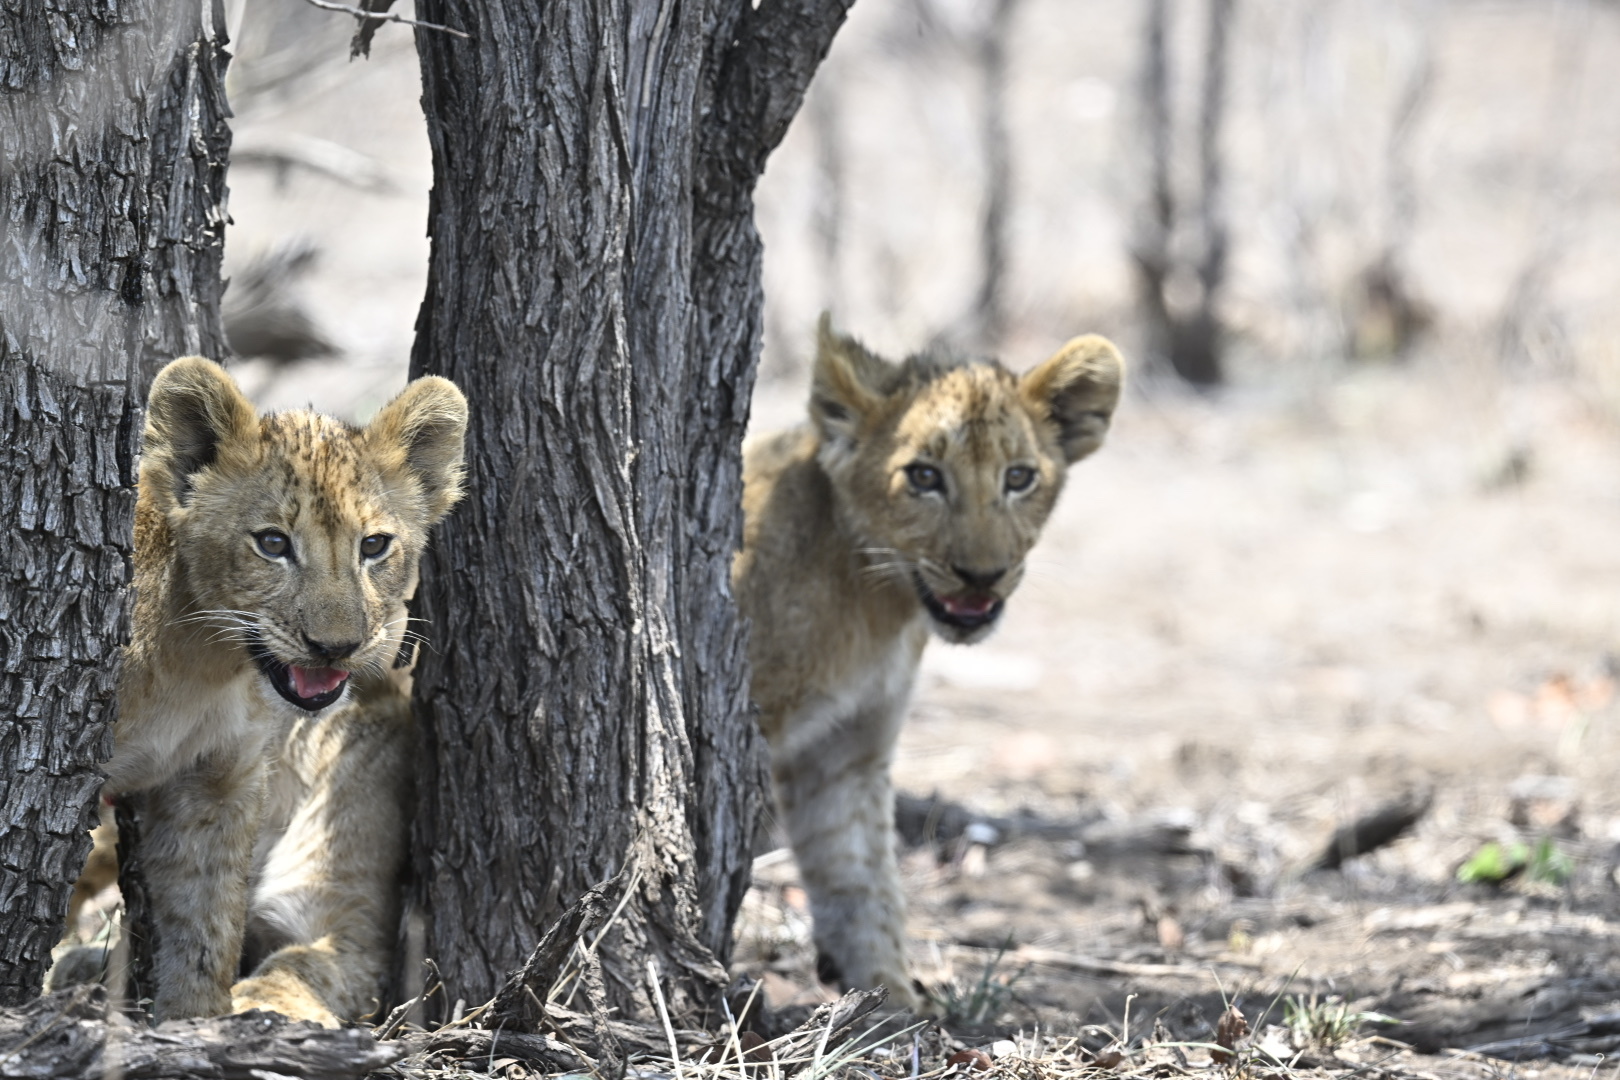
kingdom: Animalia
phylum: Chordata
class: Mammalia
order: Carnivora
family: Felidae
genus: Panthera
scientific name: Panthera leo
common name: Lion
